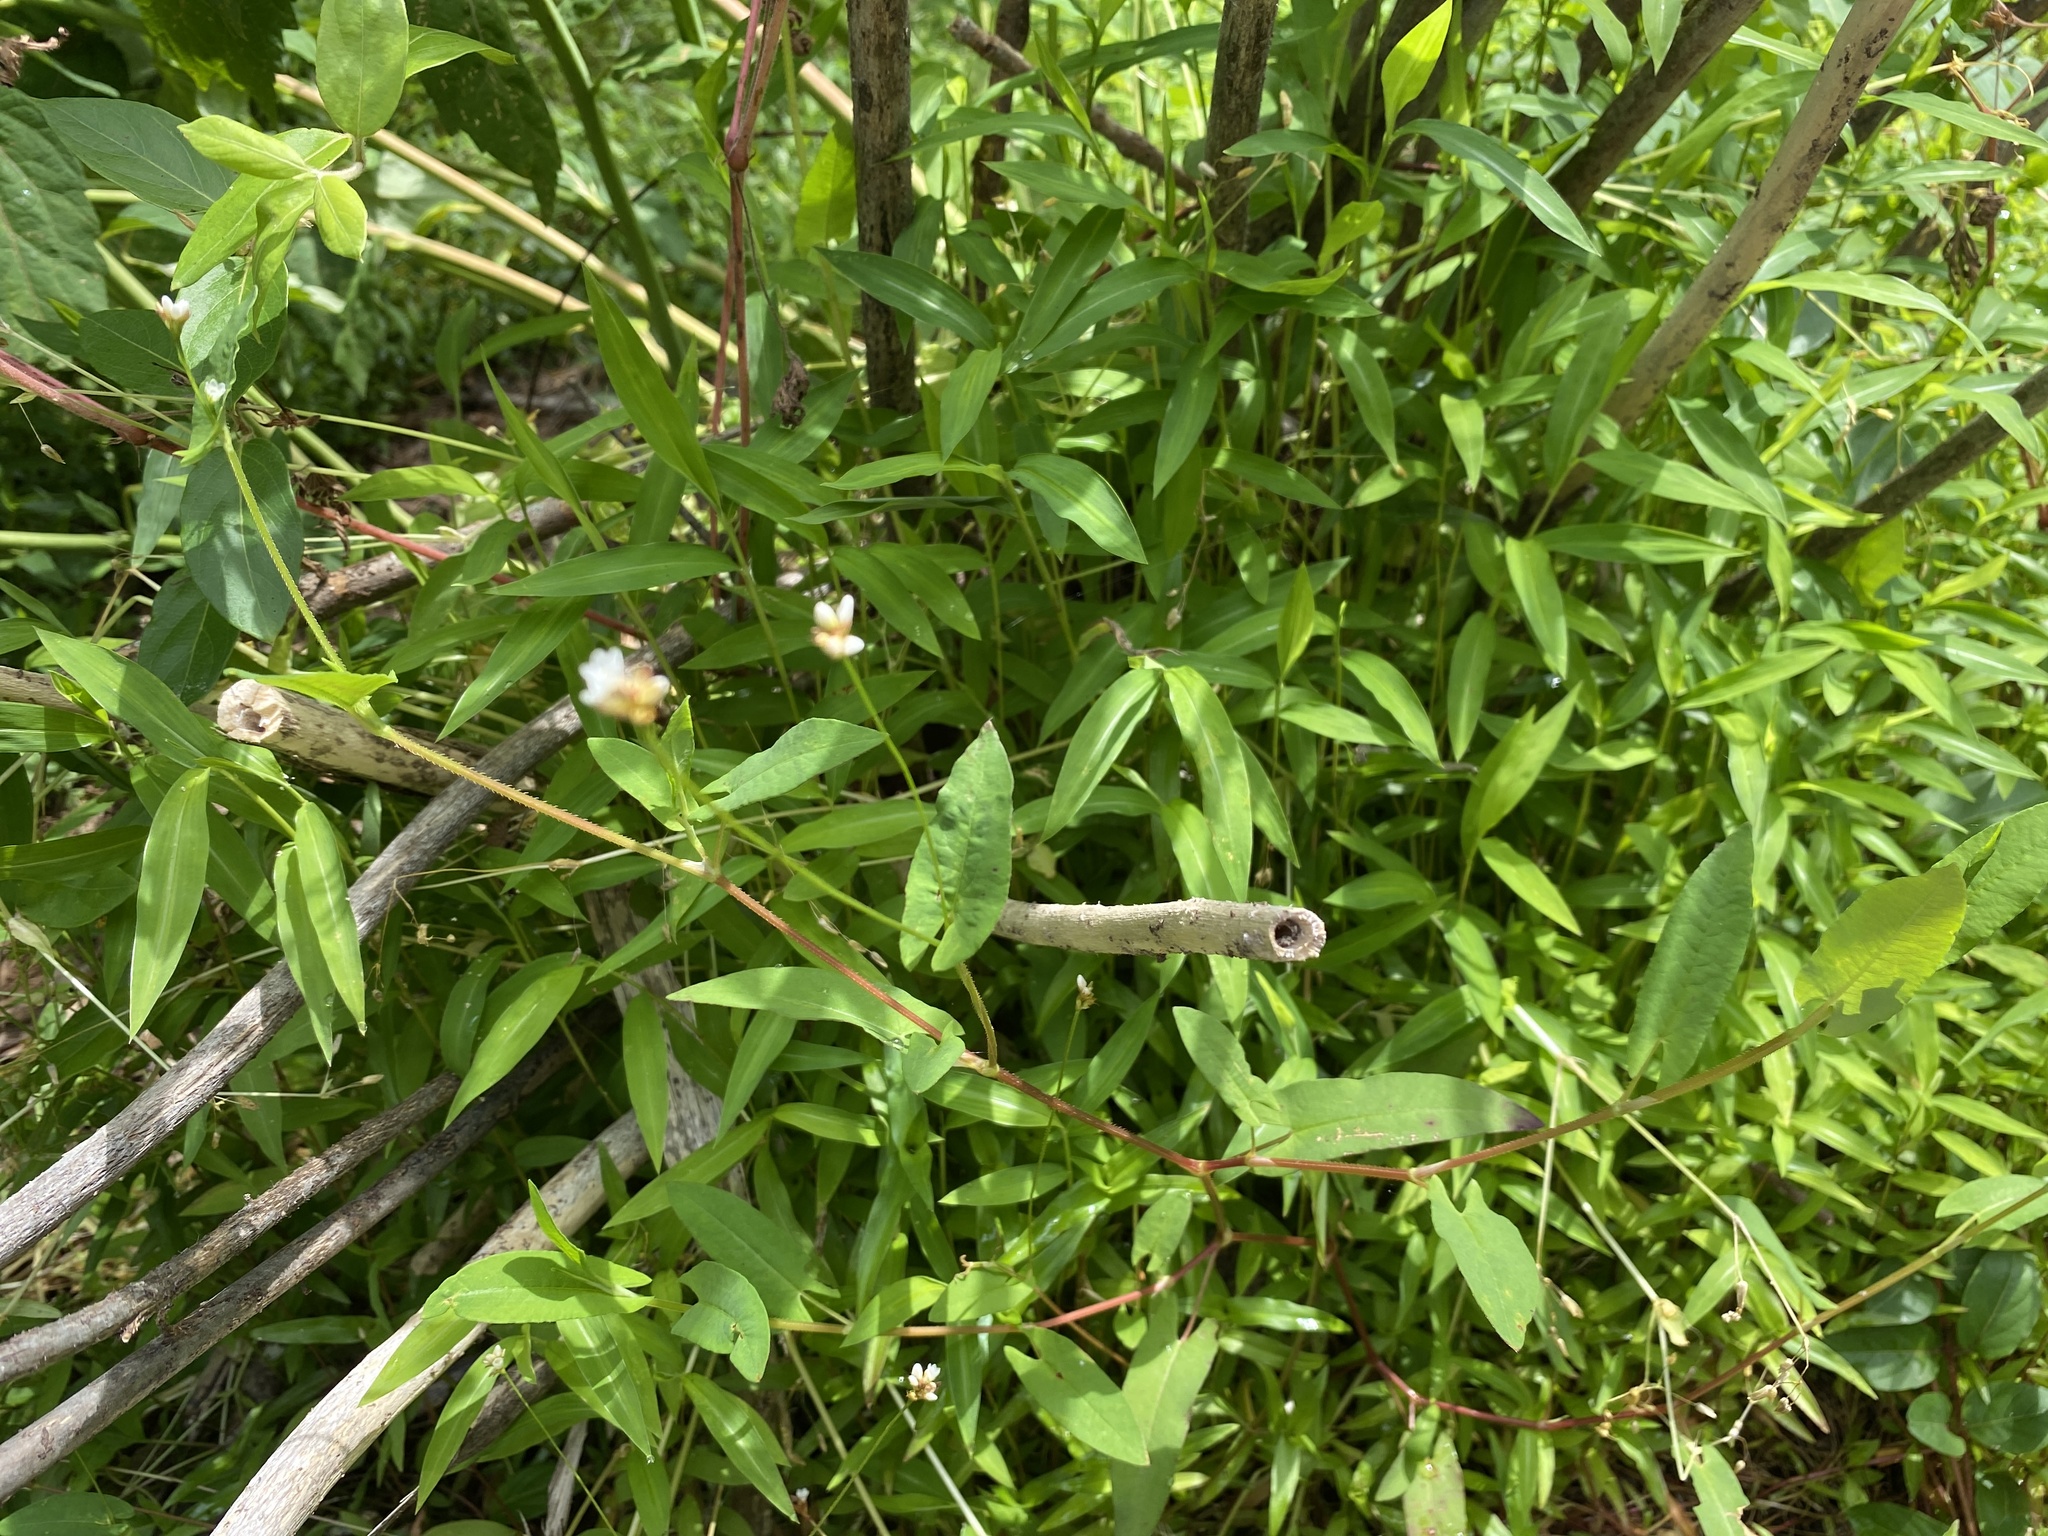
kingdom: Plantae
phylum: Tracheophyta
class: Magnoliopsida
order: Caryophyllales
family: Polygonaceae
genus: Persicaria
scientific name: Persicaria sagittata
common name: American tearthumb
